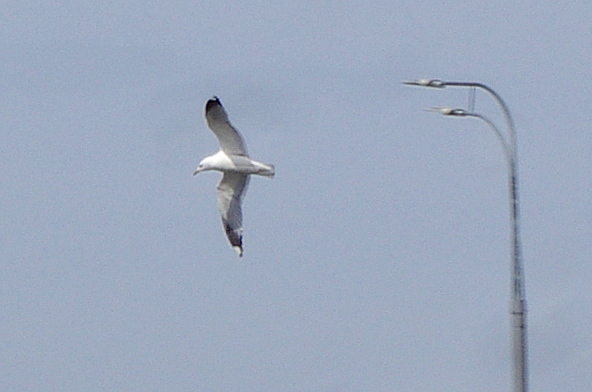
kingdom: Animalia
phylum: Chordata
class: Aves
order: Charadriiformes
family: Laridae
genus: Larus
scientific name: Larus canus
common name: Mew gull
